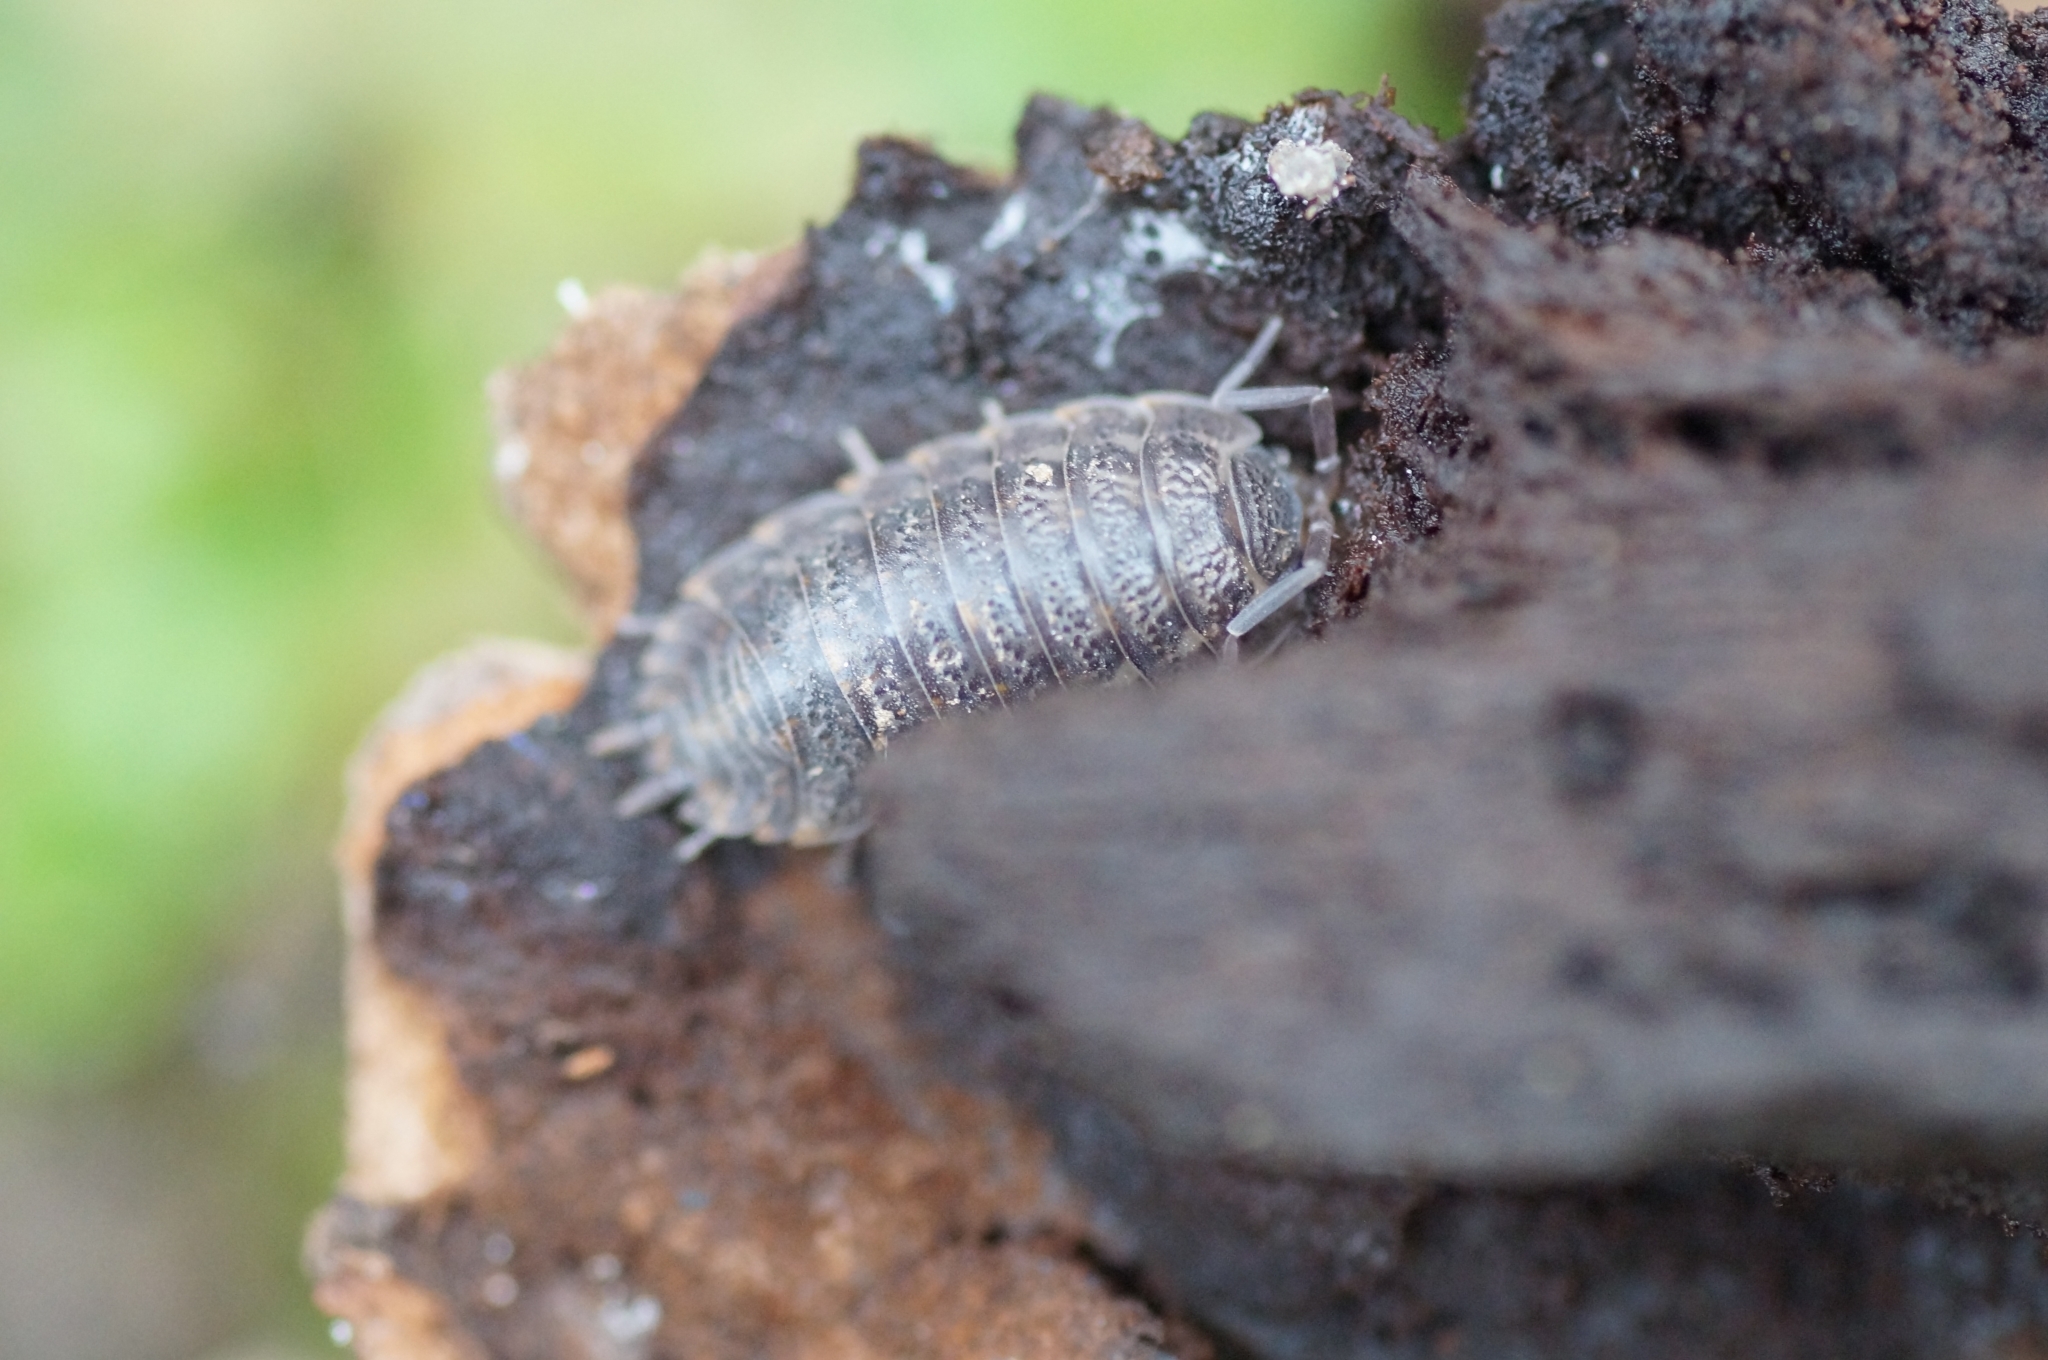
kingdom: Animalia
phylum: Arthropoda
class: Malacostraca
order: Isopoda
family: Trachelipodidae
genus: Trachelipus
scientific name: Trachelipus rathkii
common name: Isopod
